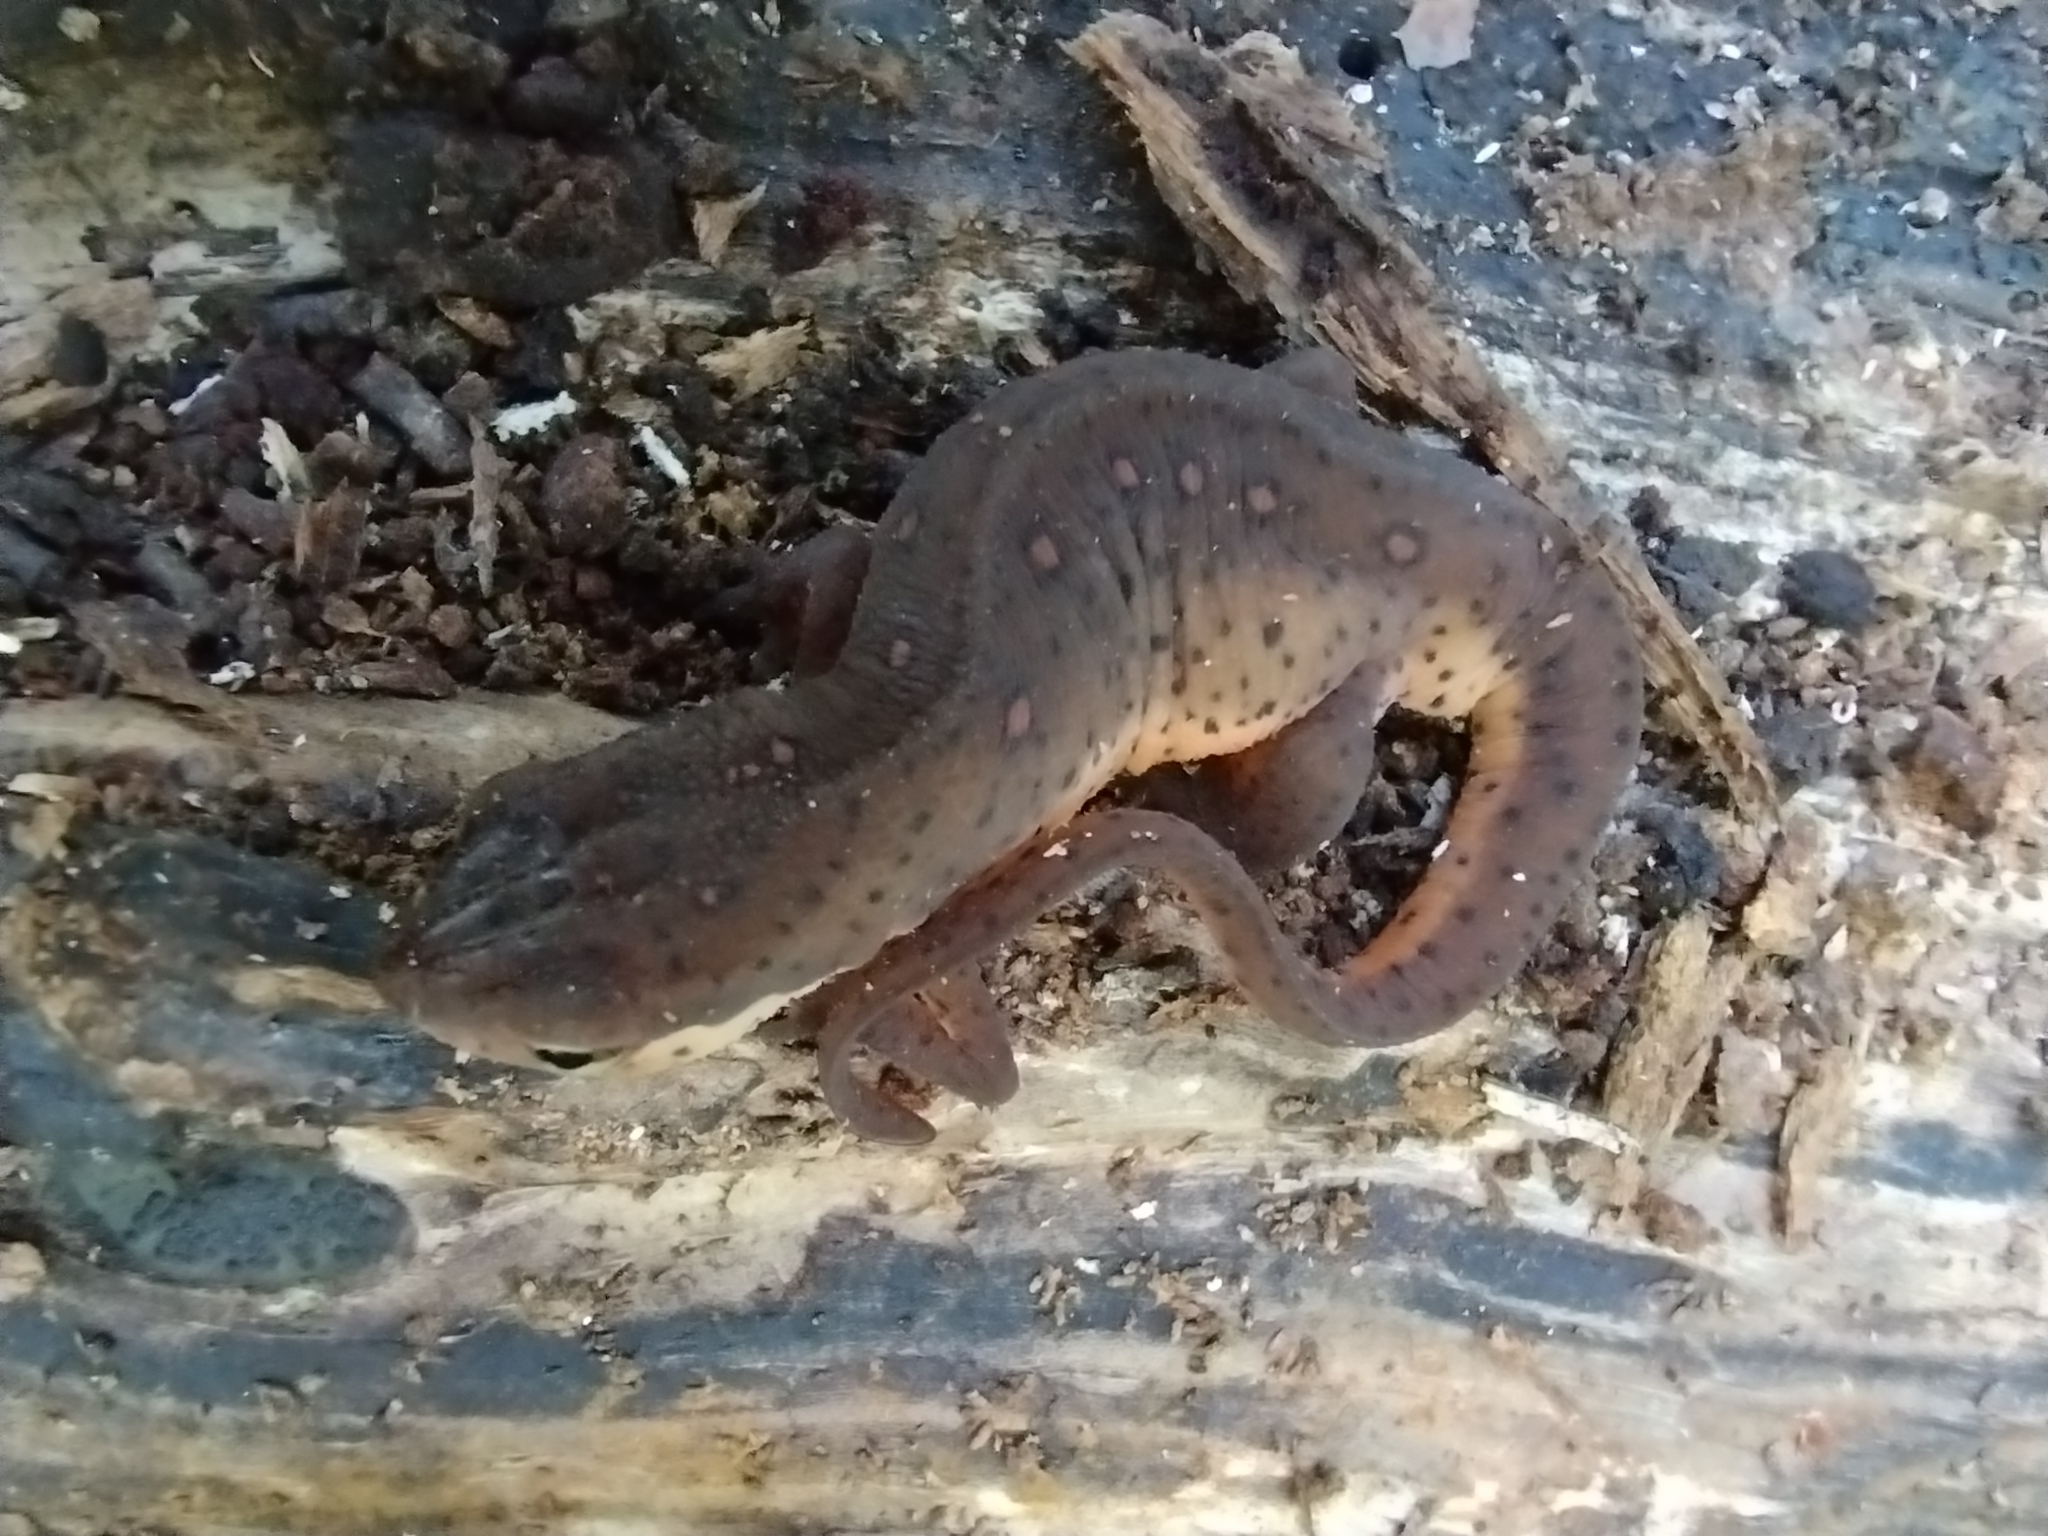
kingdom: Animalia
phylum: Chordata
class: Amphibia
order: Caudata
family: Salamandridae
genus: Notophthalmus
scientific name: Notophthalmus viridescens
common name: Eastern newt
